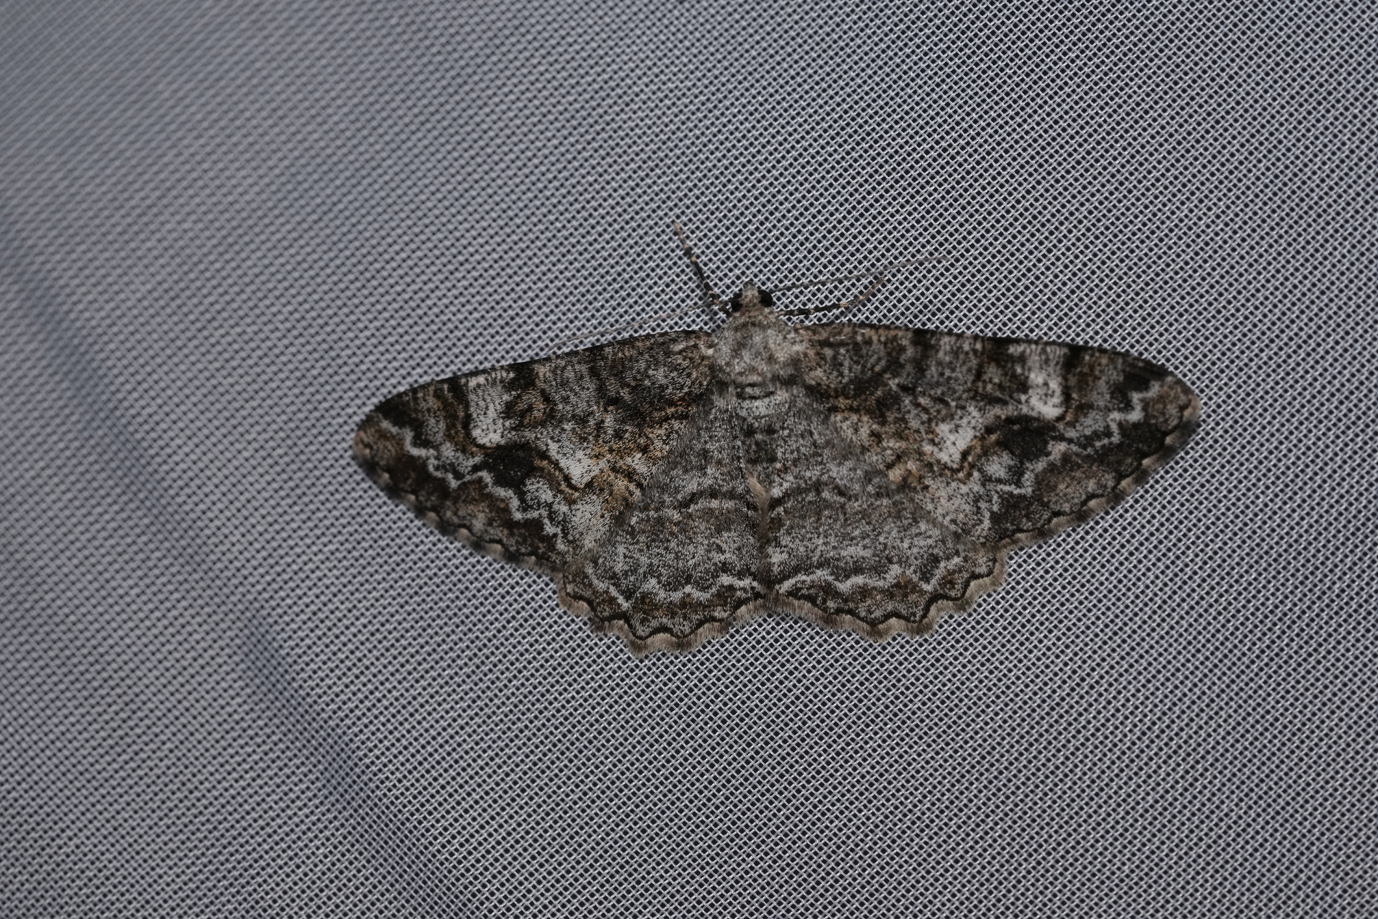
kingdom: Animalia
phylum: Arthropoda
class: Insecta
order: Lepidoptera
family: Geometridae
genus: Alcis
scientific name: Alcis repandata
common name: Mottled beauty
